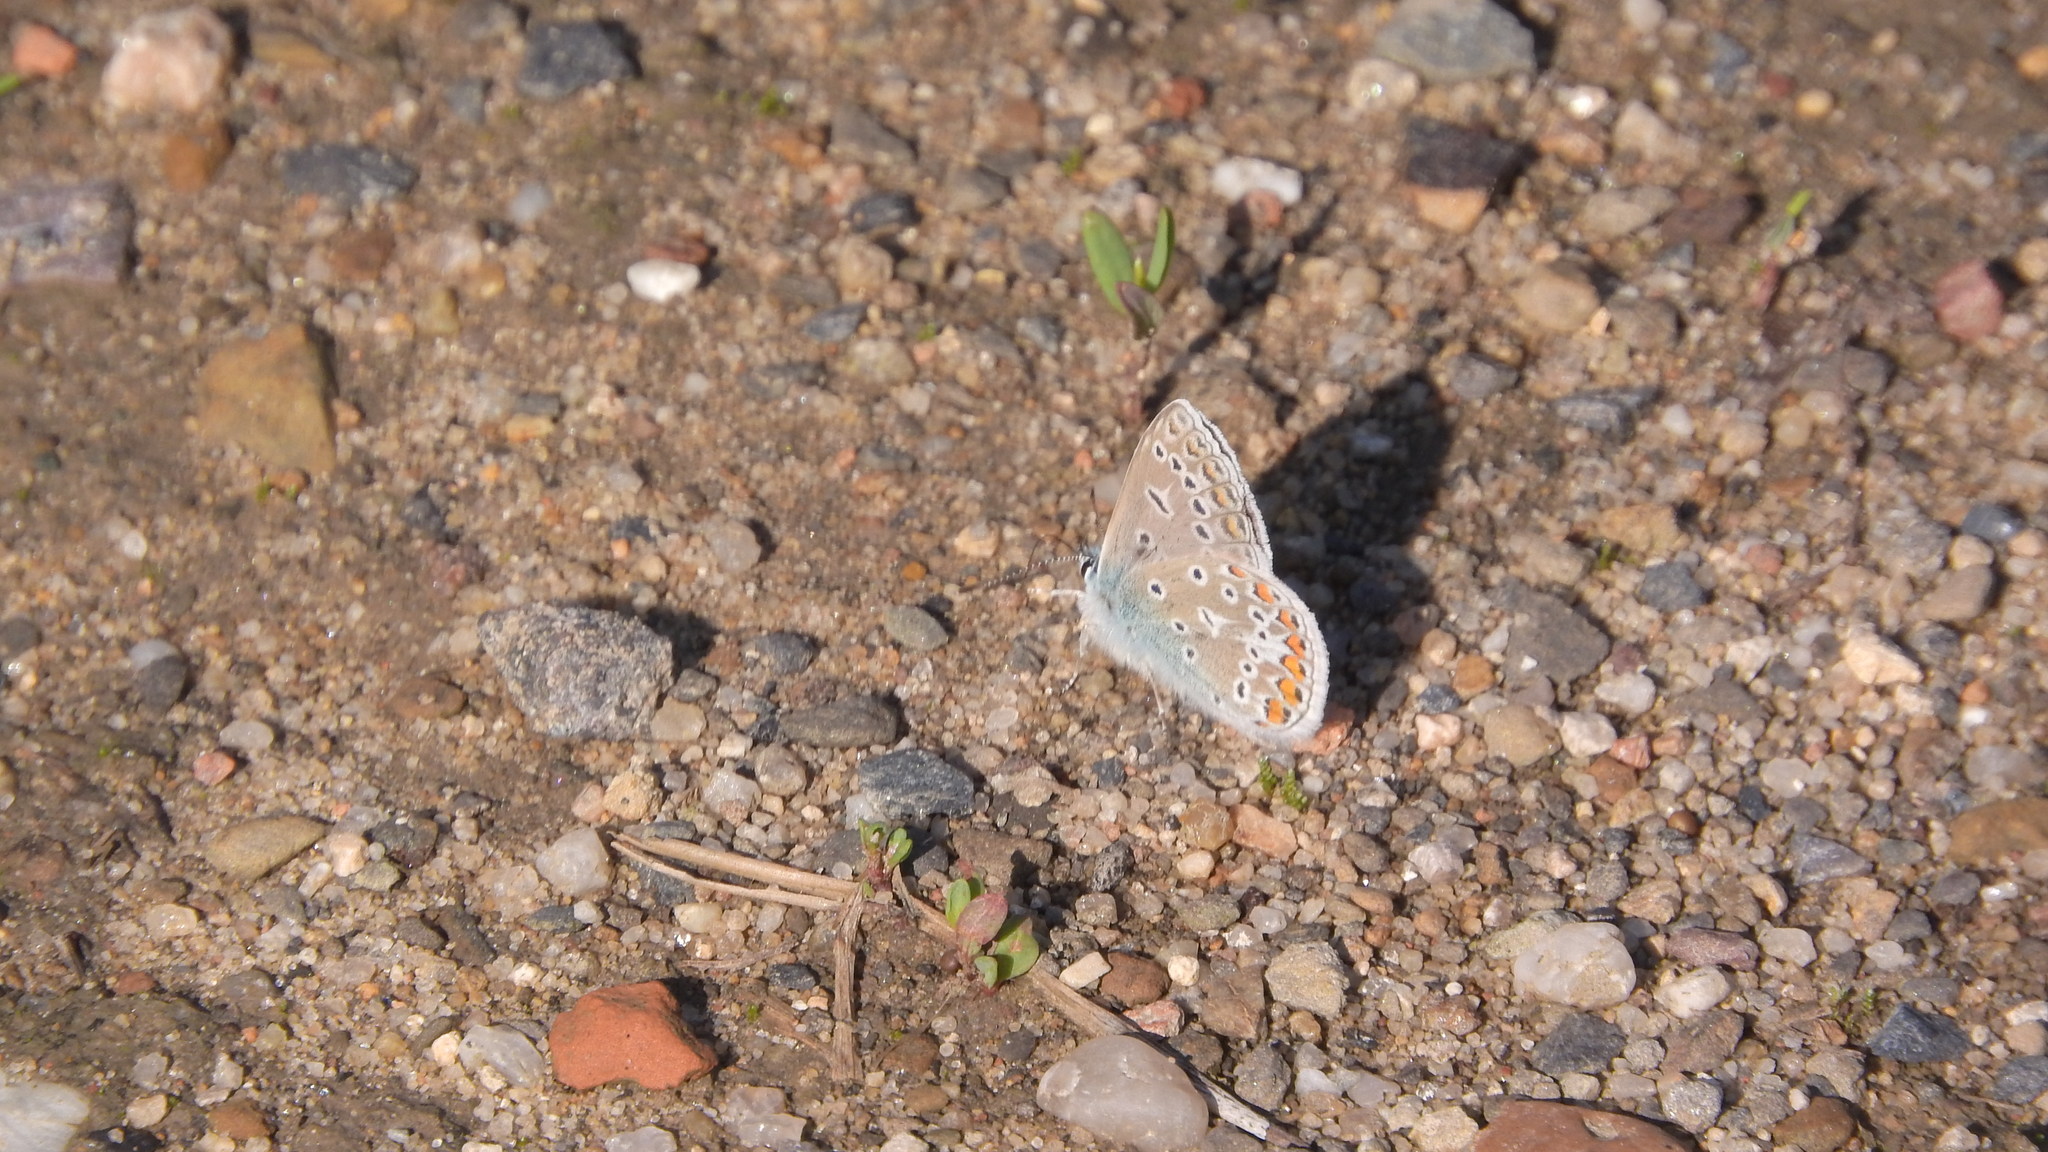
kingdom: Animalia
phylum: Arthropoda
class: Insecta
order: Lepidoptera
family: Lycaenidae
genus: Polyommatus
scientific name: Polyommatus icarus
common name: Common blue
